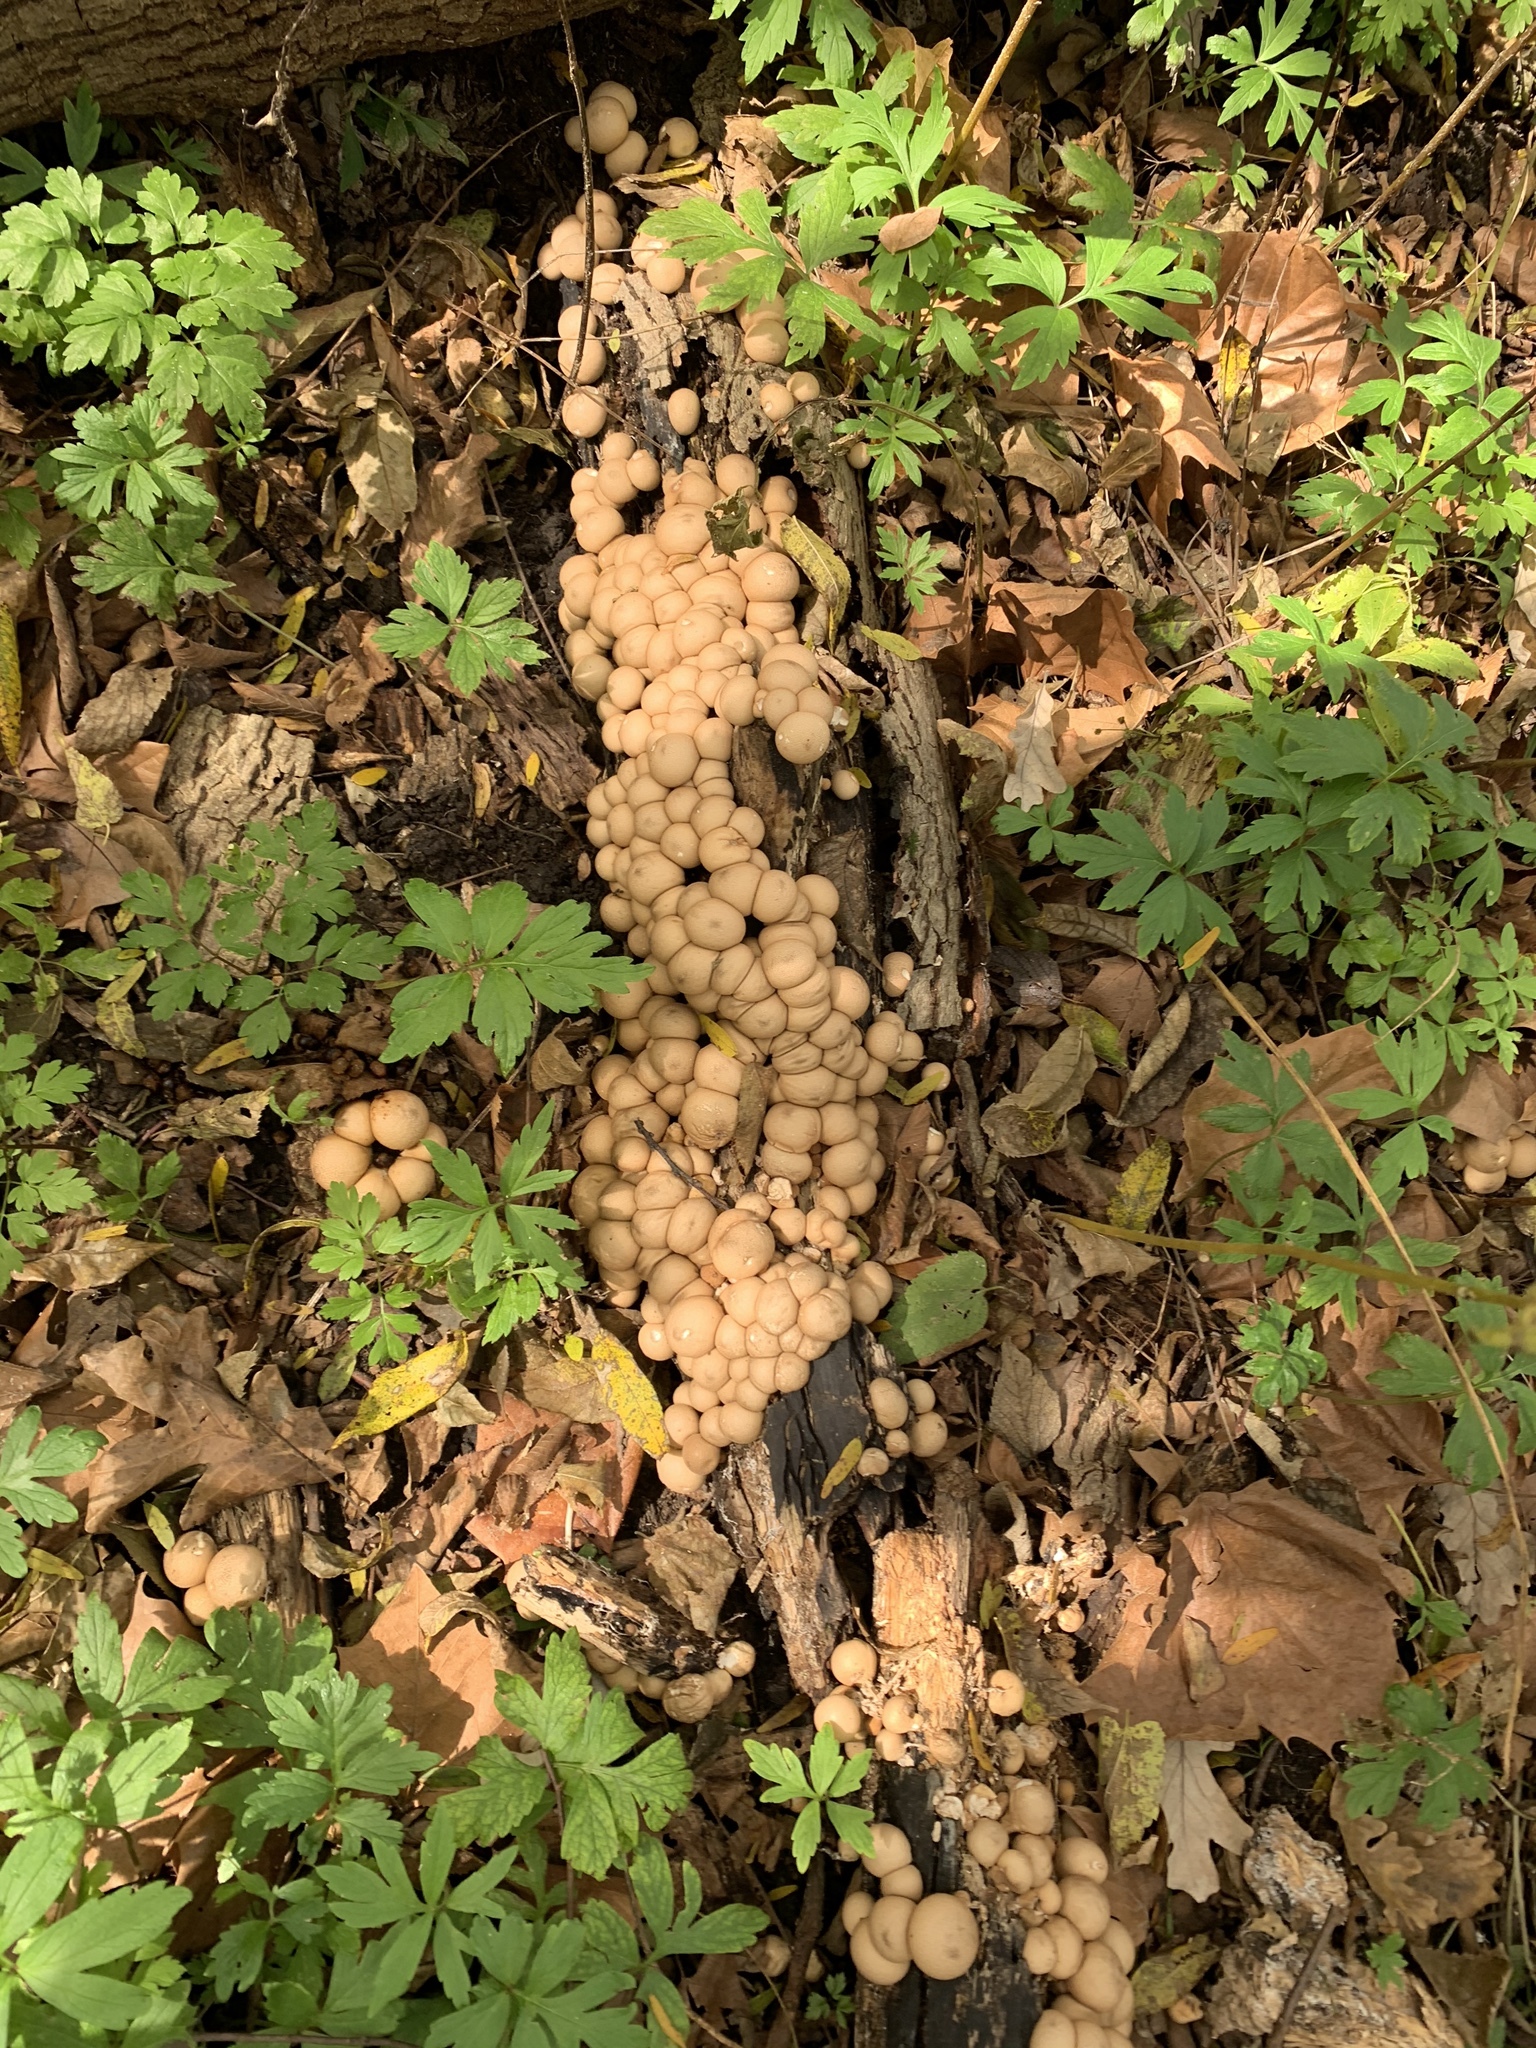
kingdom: Fungi
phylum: Basidiomycota
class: Agaricomycetes
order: Agaricales
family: Lycoperdaceae
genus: Apioperdon
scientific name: Apioperdon pyriforme
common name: Pear-shaped puffball
